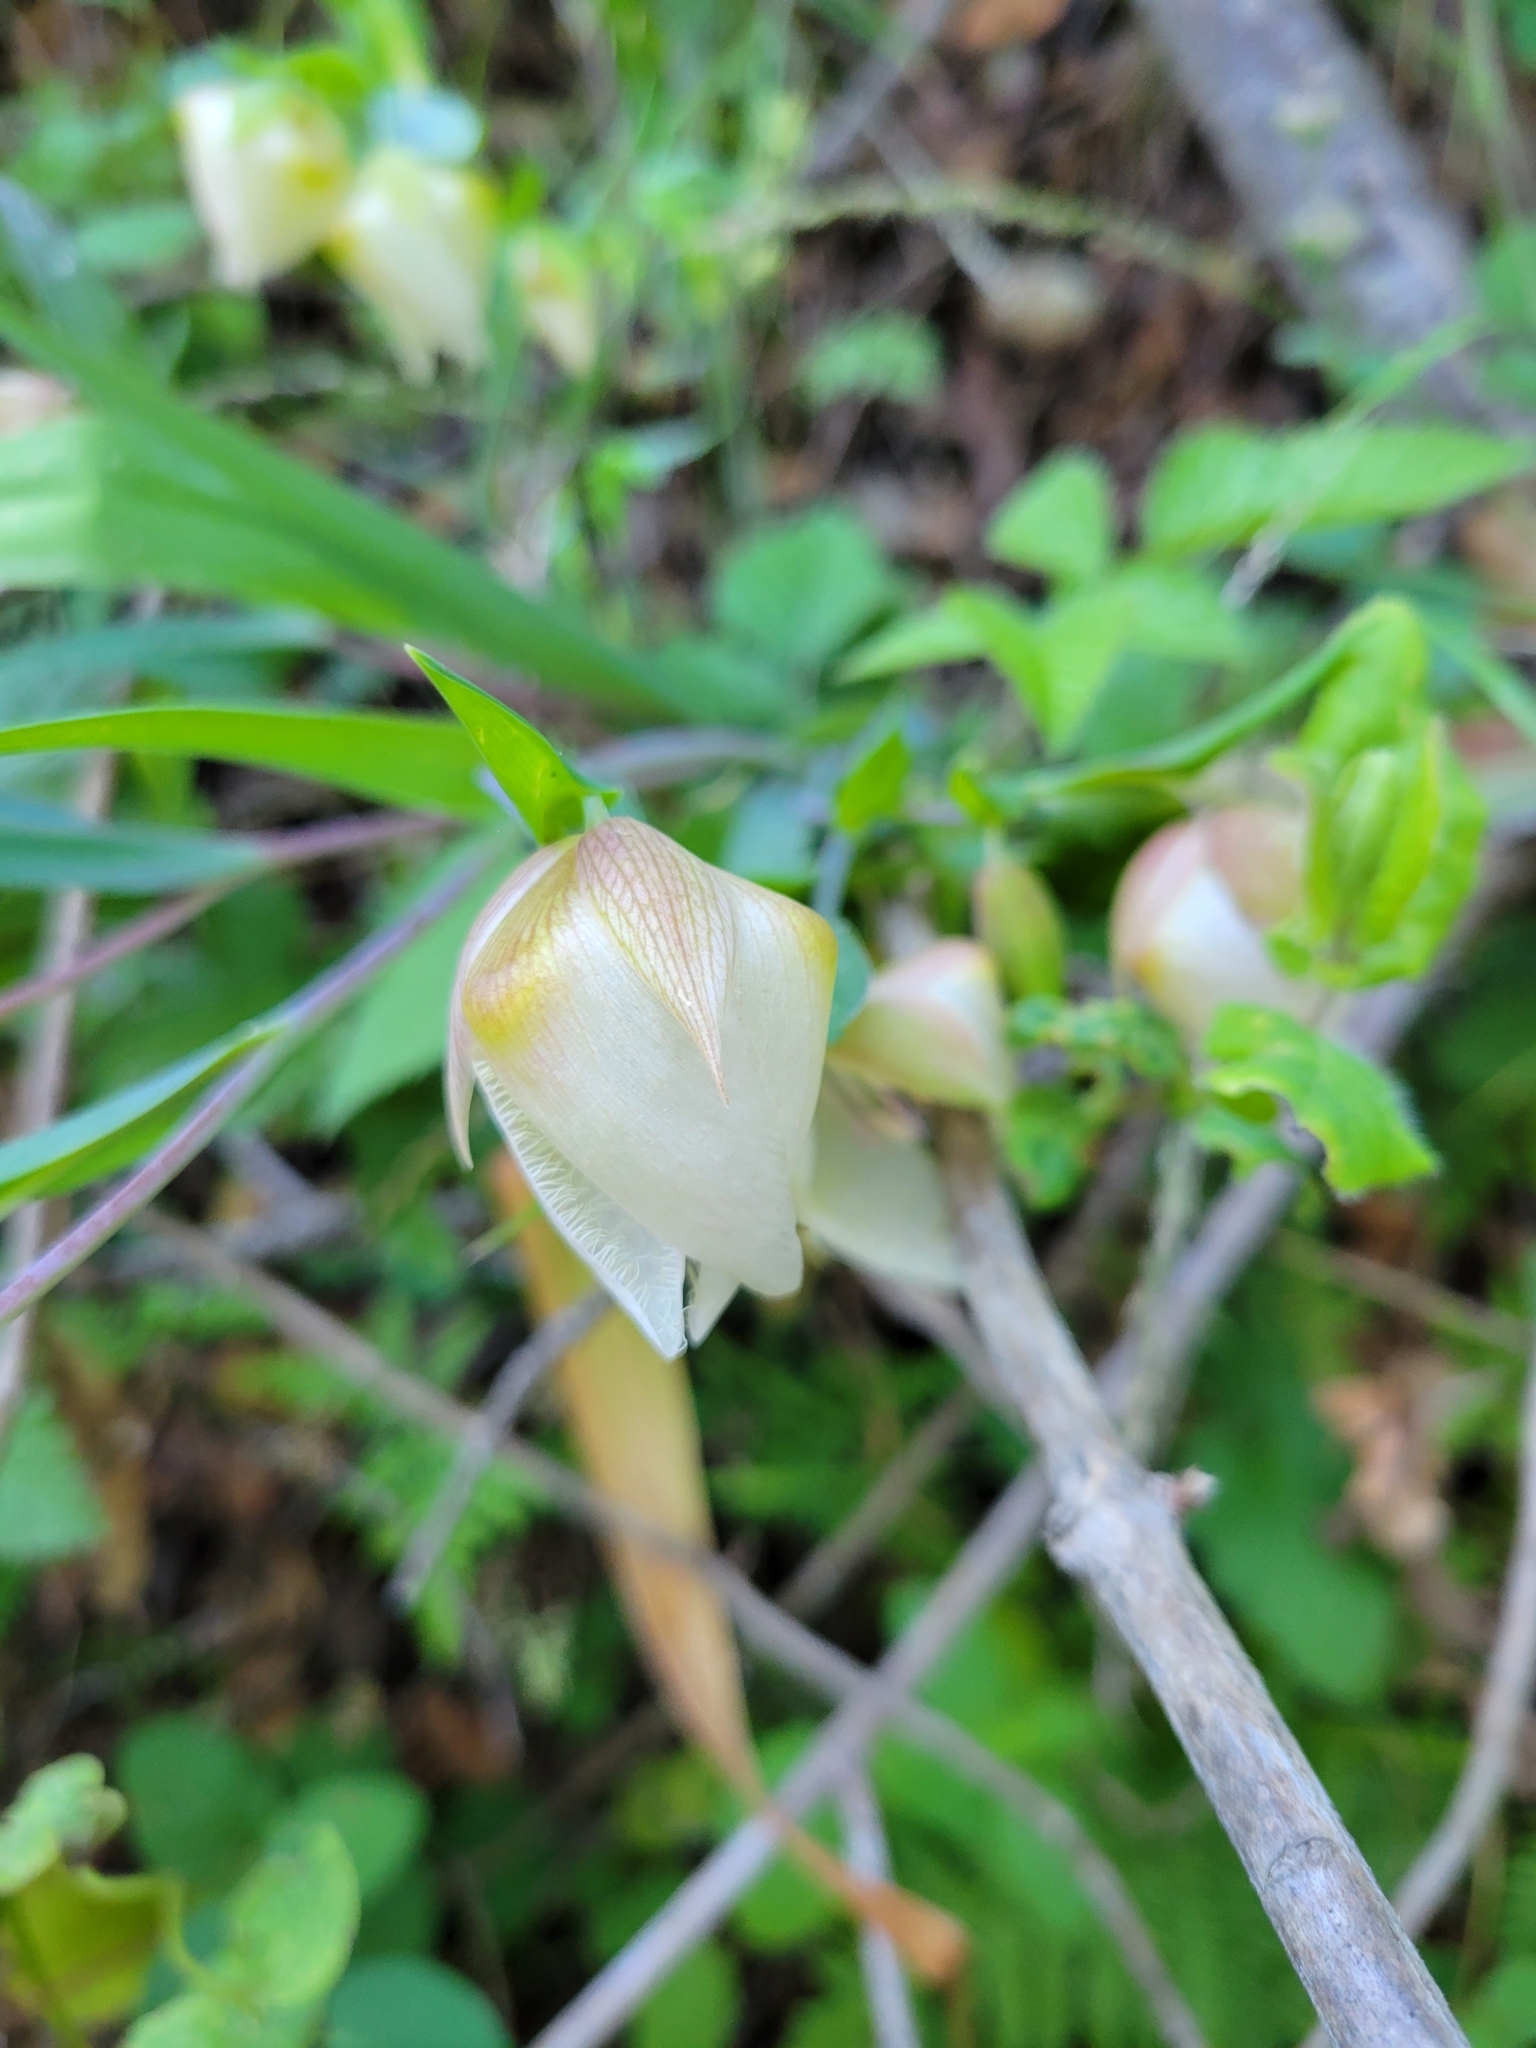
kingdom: Plantae
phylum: Tracheophyta
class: Liliopsida
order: Liliales
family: Liliaceae
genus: Calochortus
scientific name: Calochortus albus
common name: Fairy-lantern
